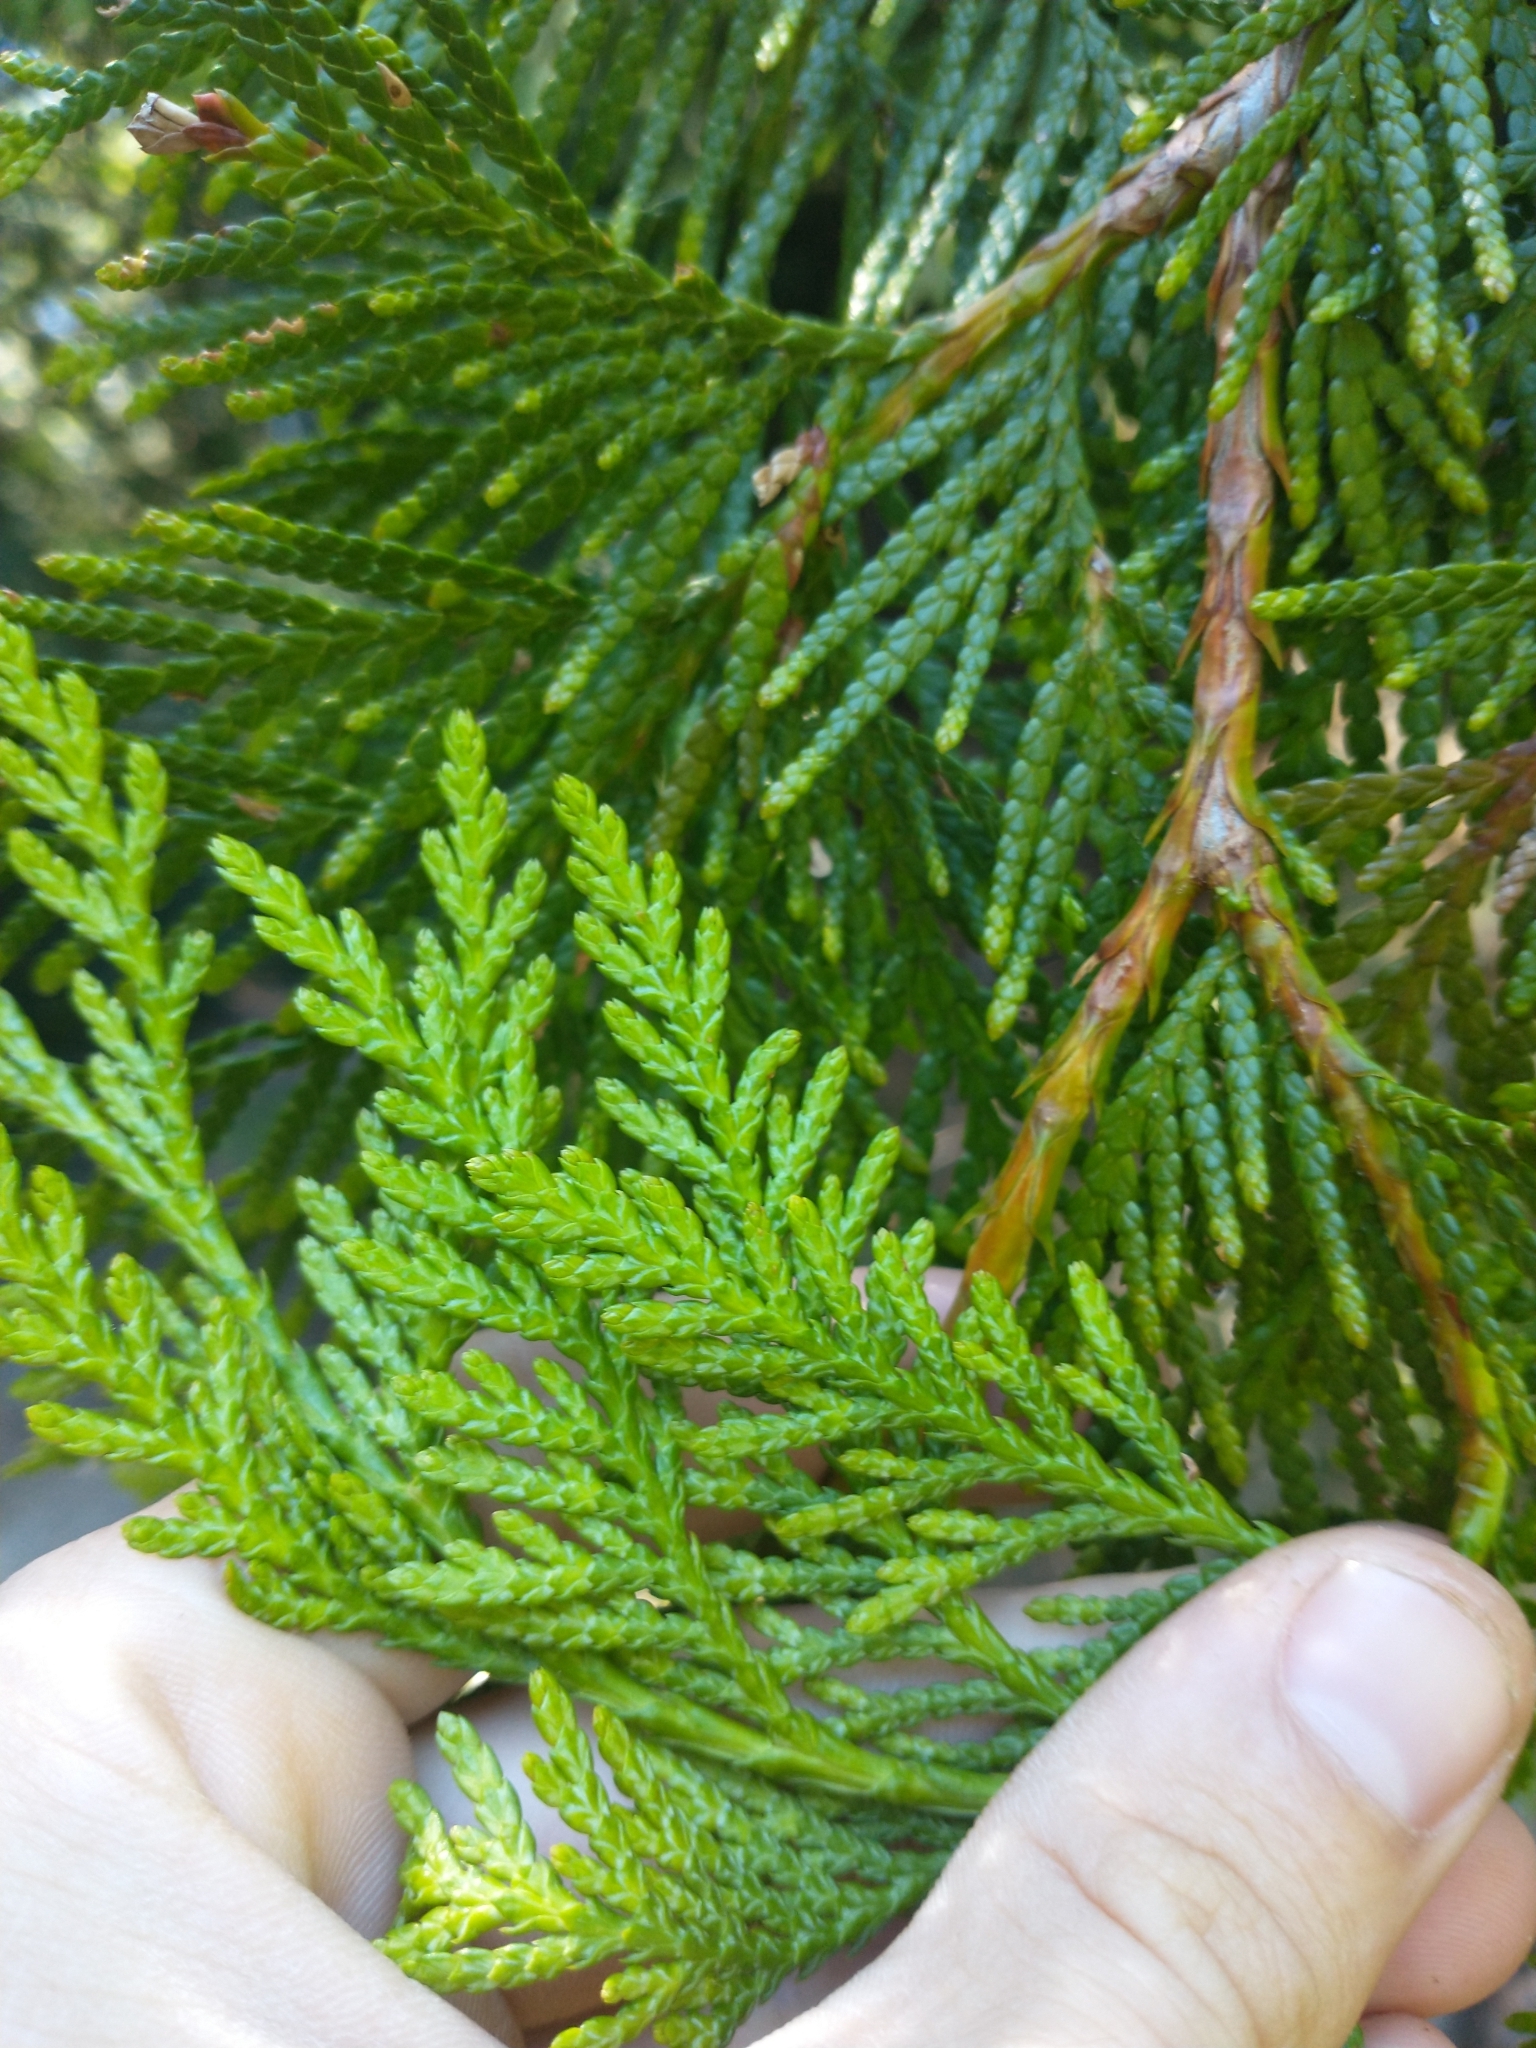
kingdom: Plantae
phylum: Tracheophyta
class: Pinopsida
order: Pinales
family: Cupressaceae
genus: Thuja
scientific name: Thuja plicata
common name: Western red-cedar
